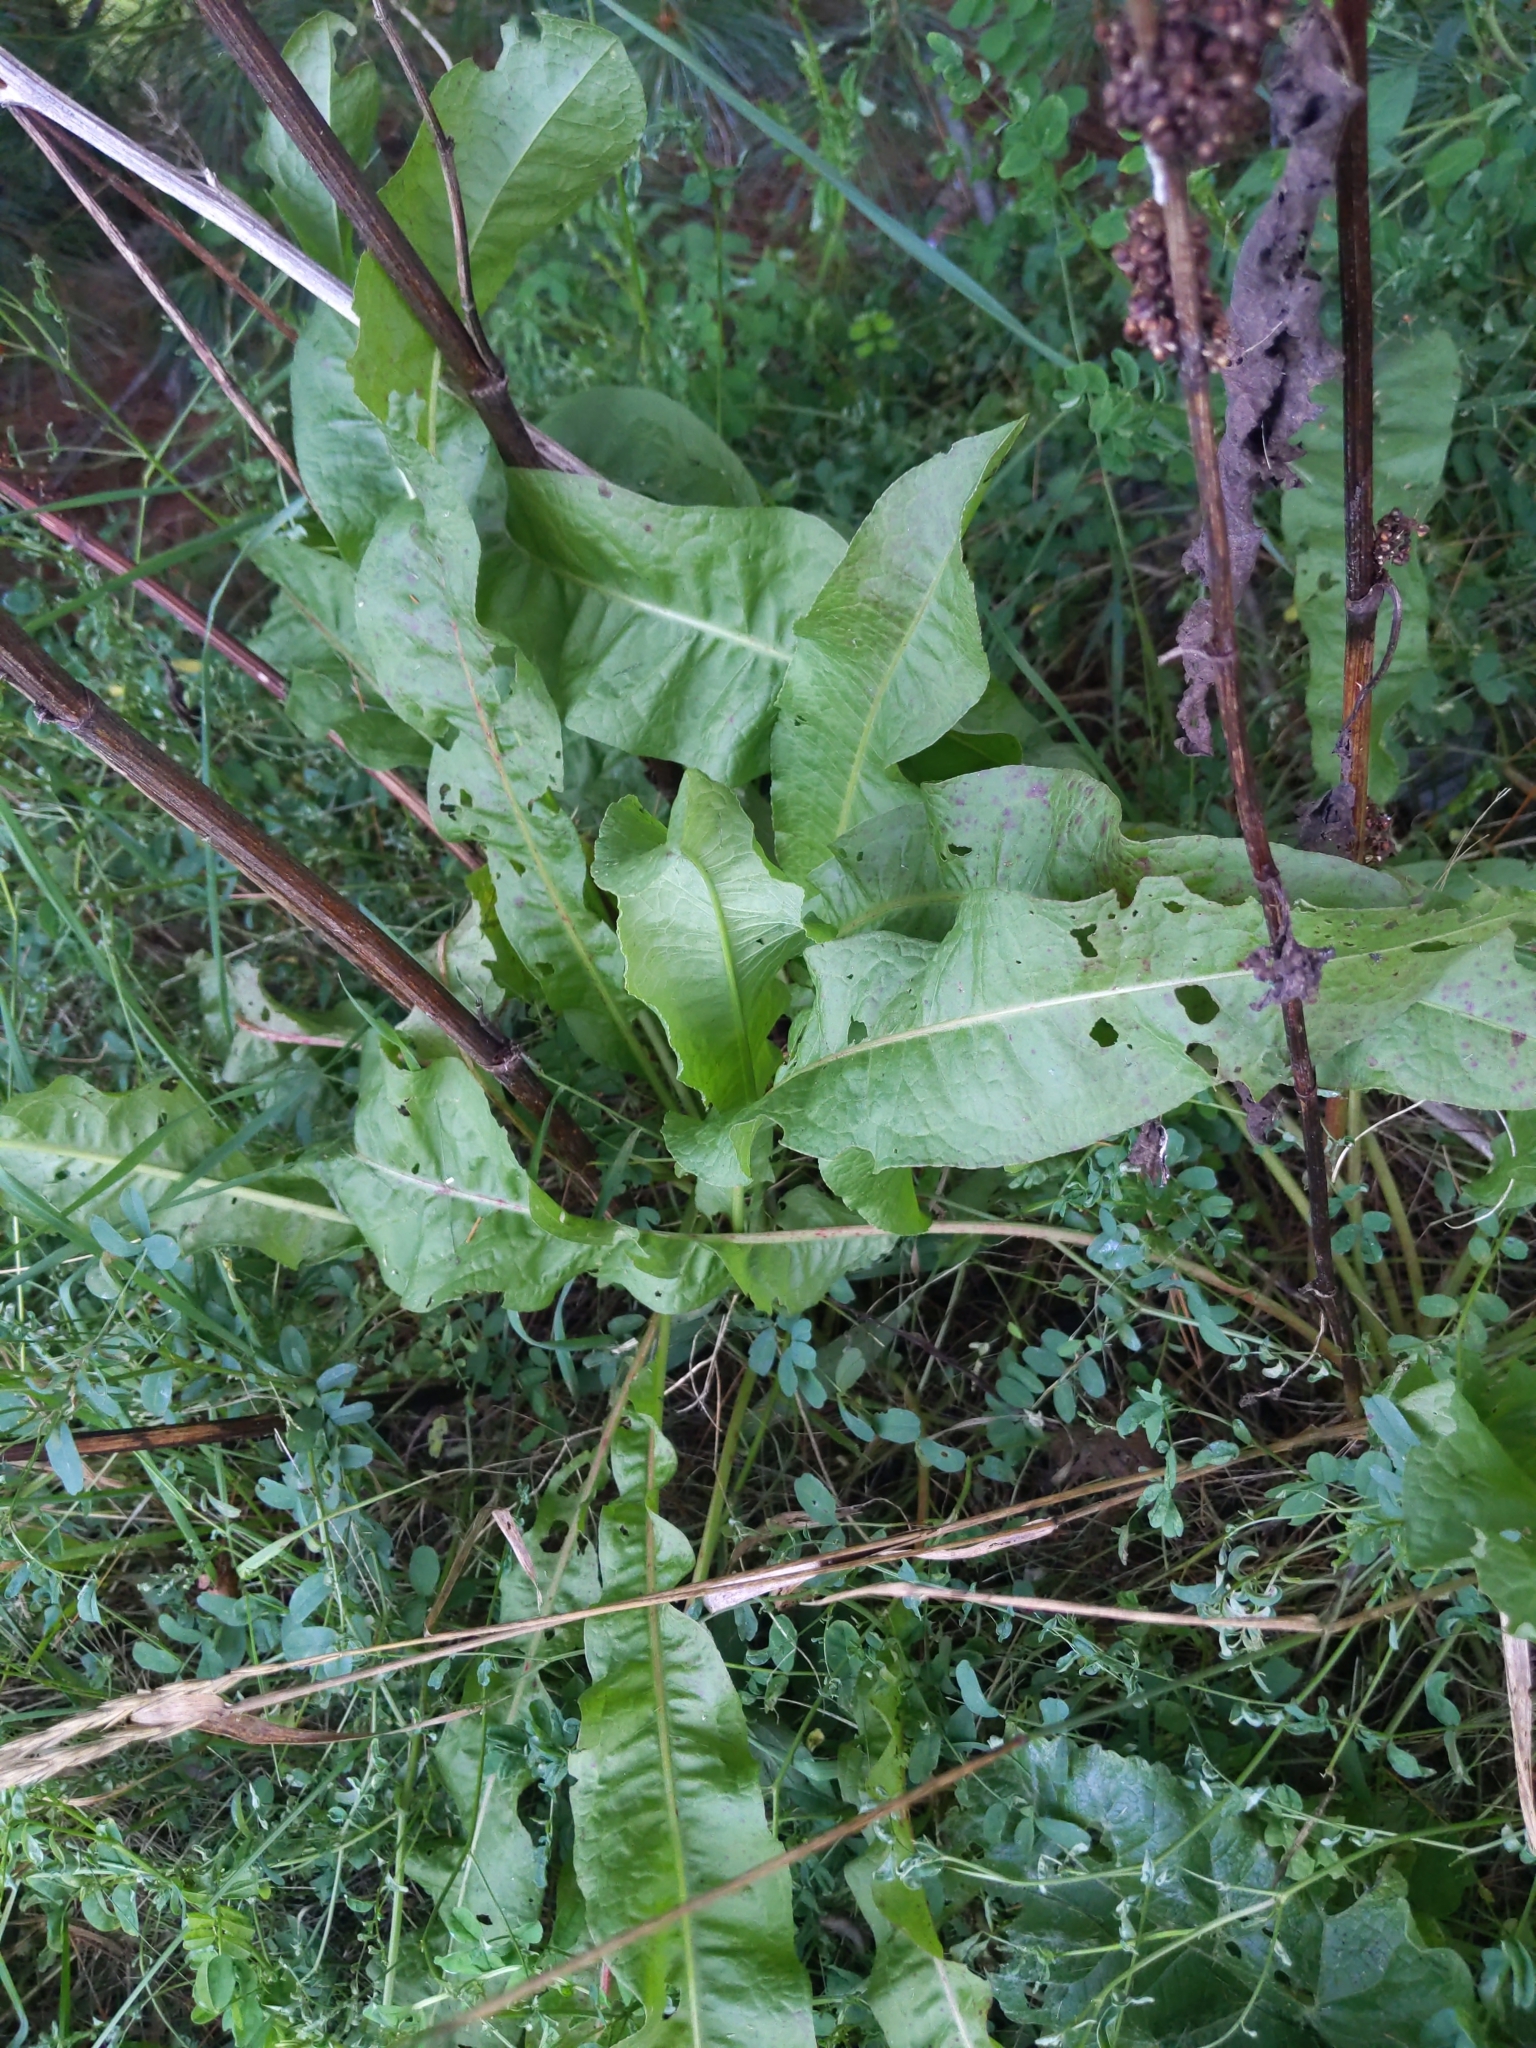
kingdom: Plantae
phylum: Tracheophyta
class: Magnoliopsida
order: Caryophyllales
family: Polygonaceae
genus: Rumex
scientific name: Rumex crispus
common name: Curled dock
